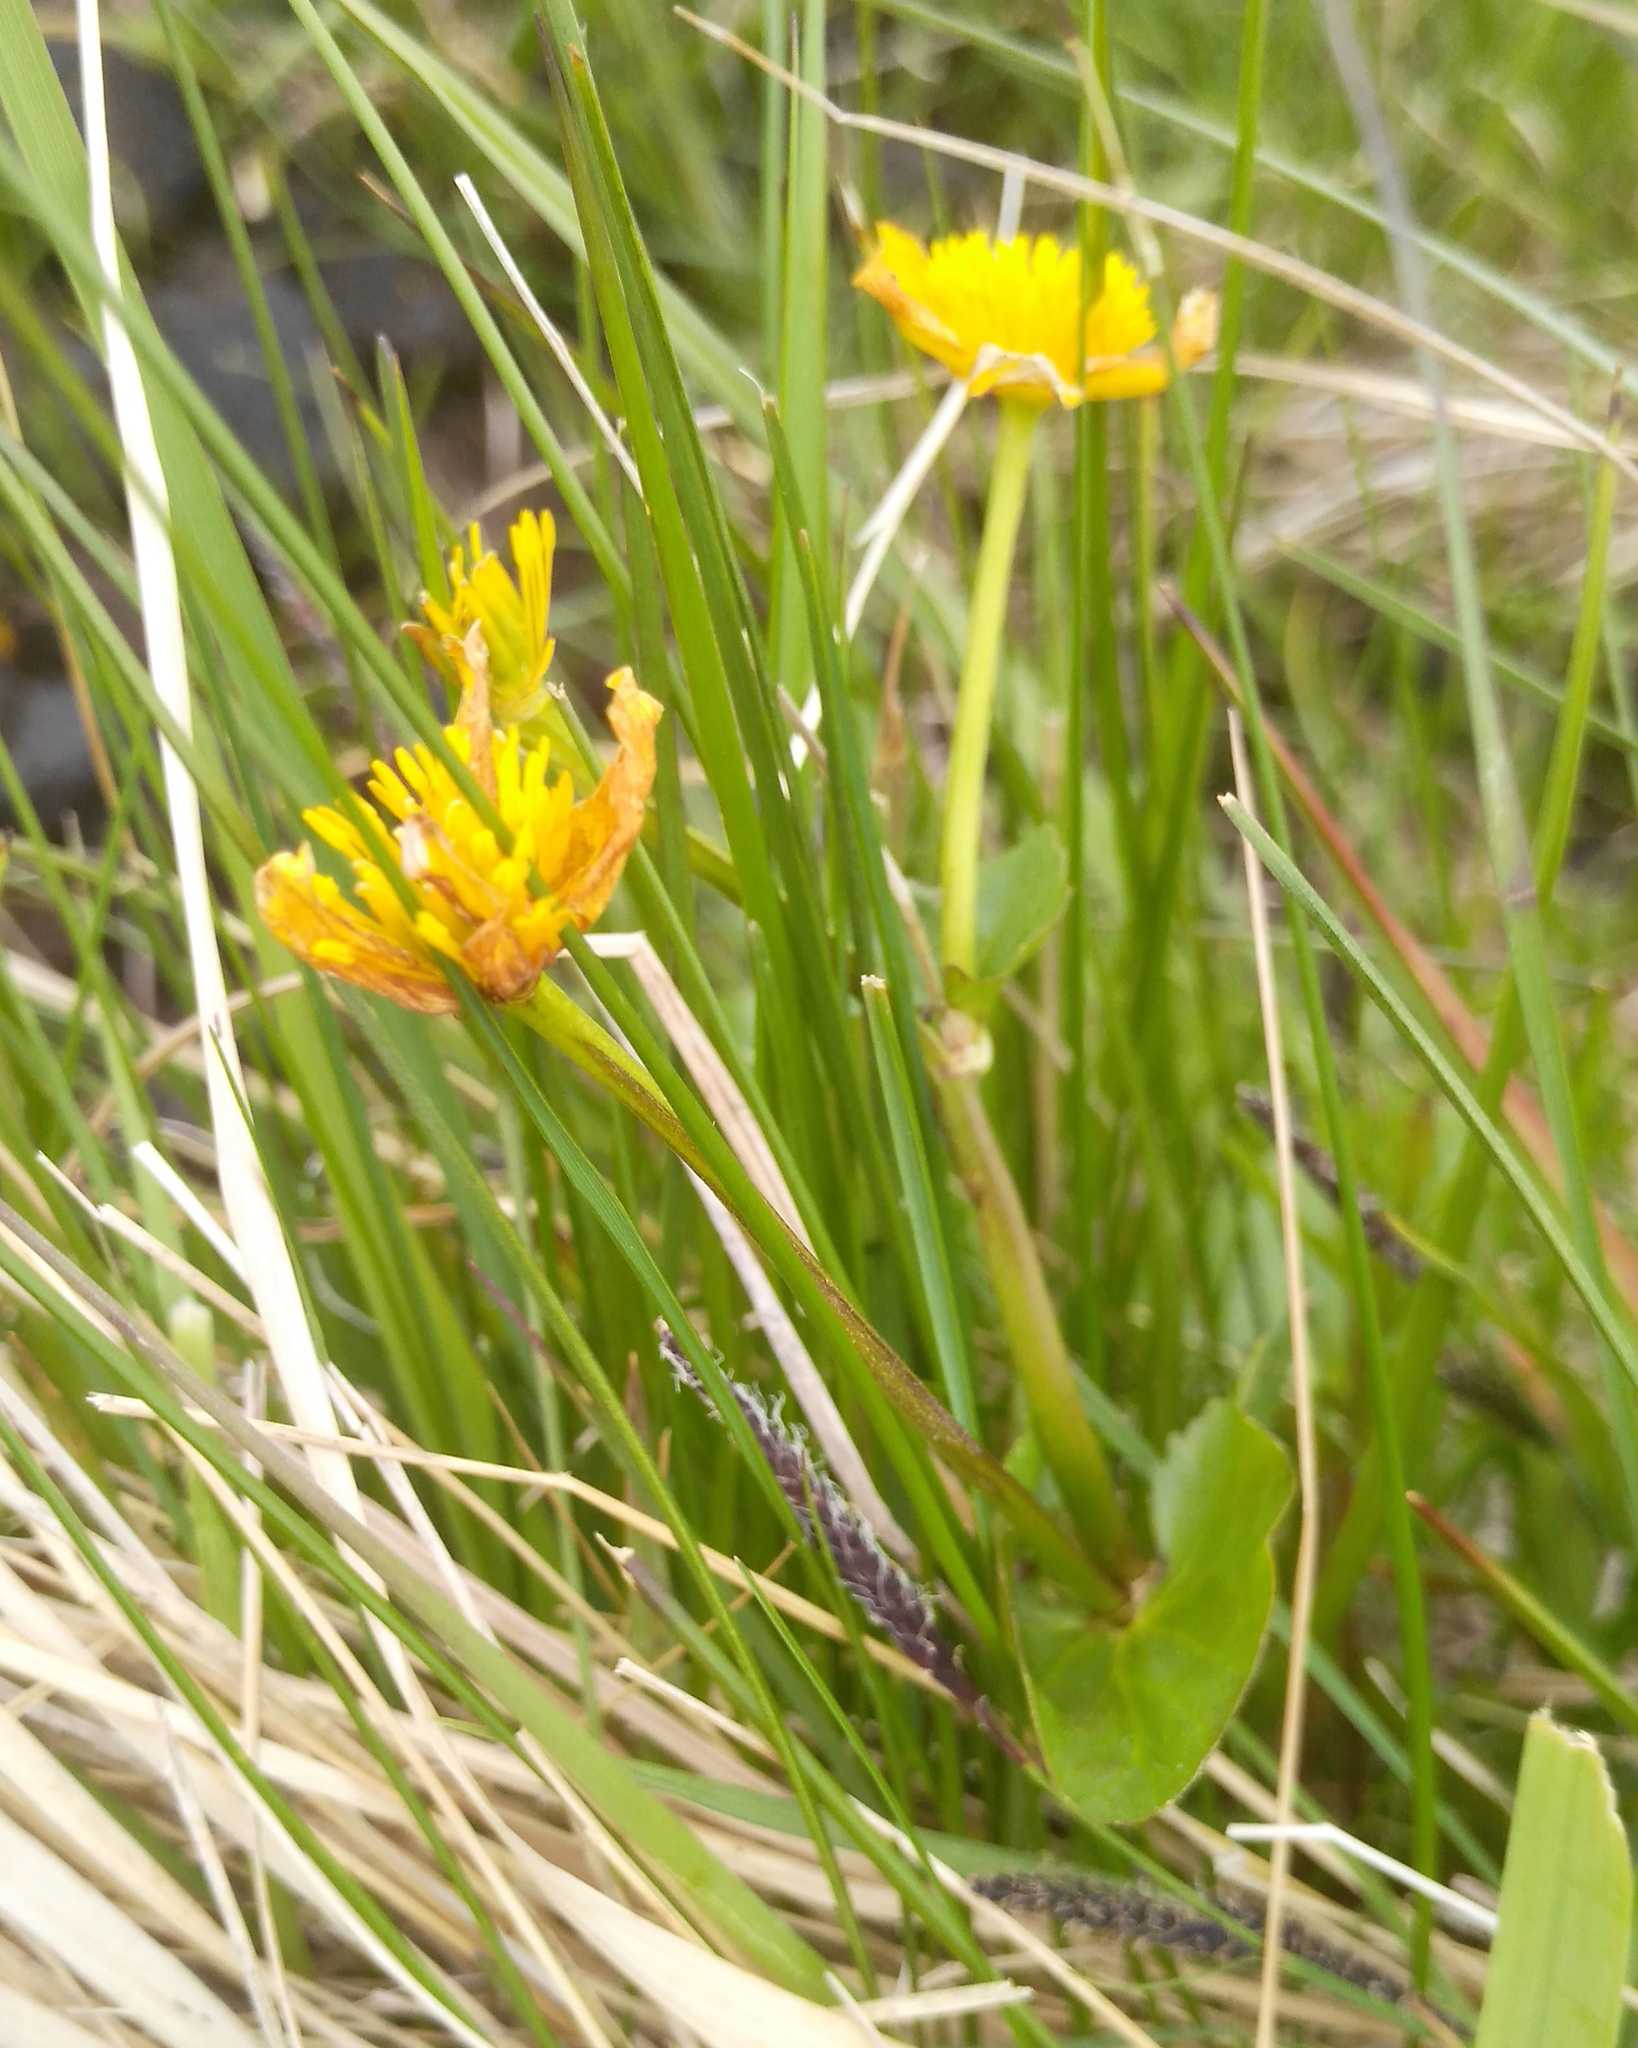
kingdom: Plantae
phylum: Tracheophyta
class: Magnoliopsida
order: Asterales
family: Asteraceae
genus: Takhtajaniantha
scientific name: Takhtajaniantha austriaca
